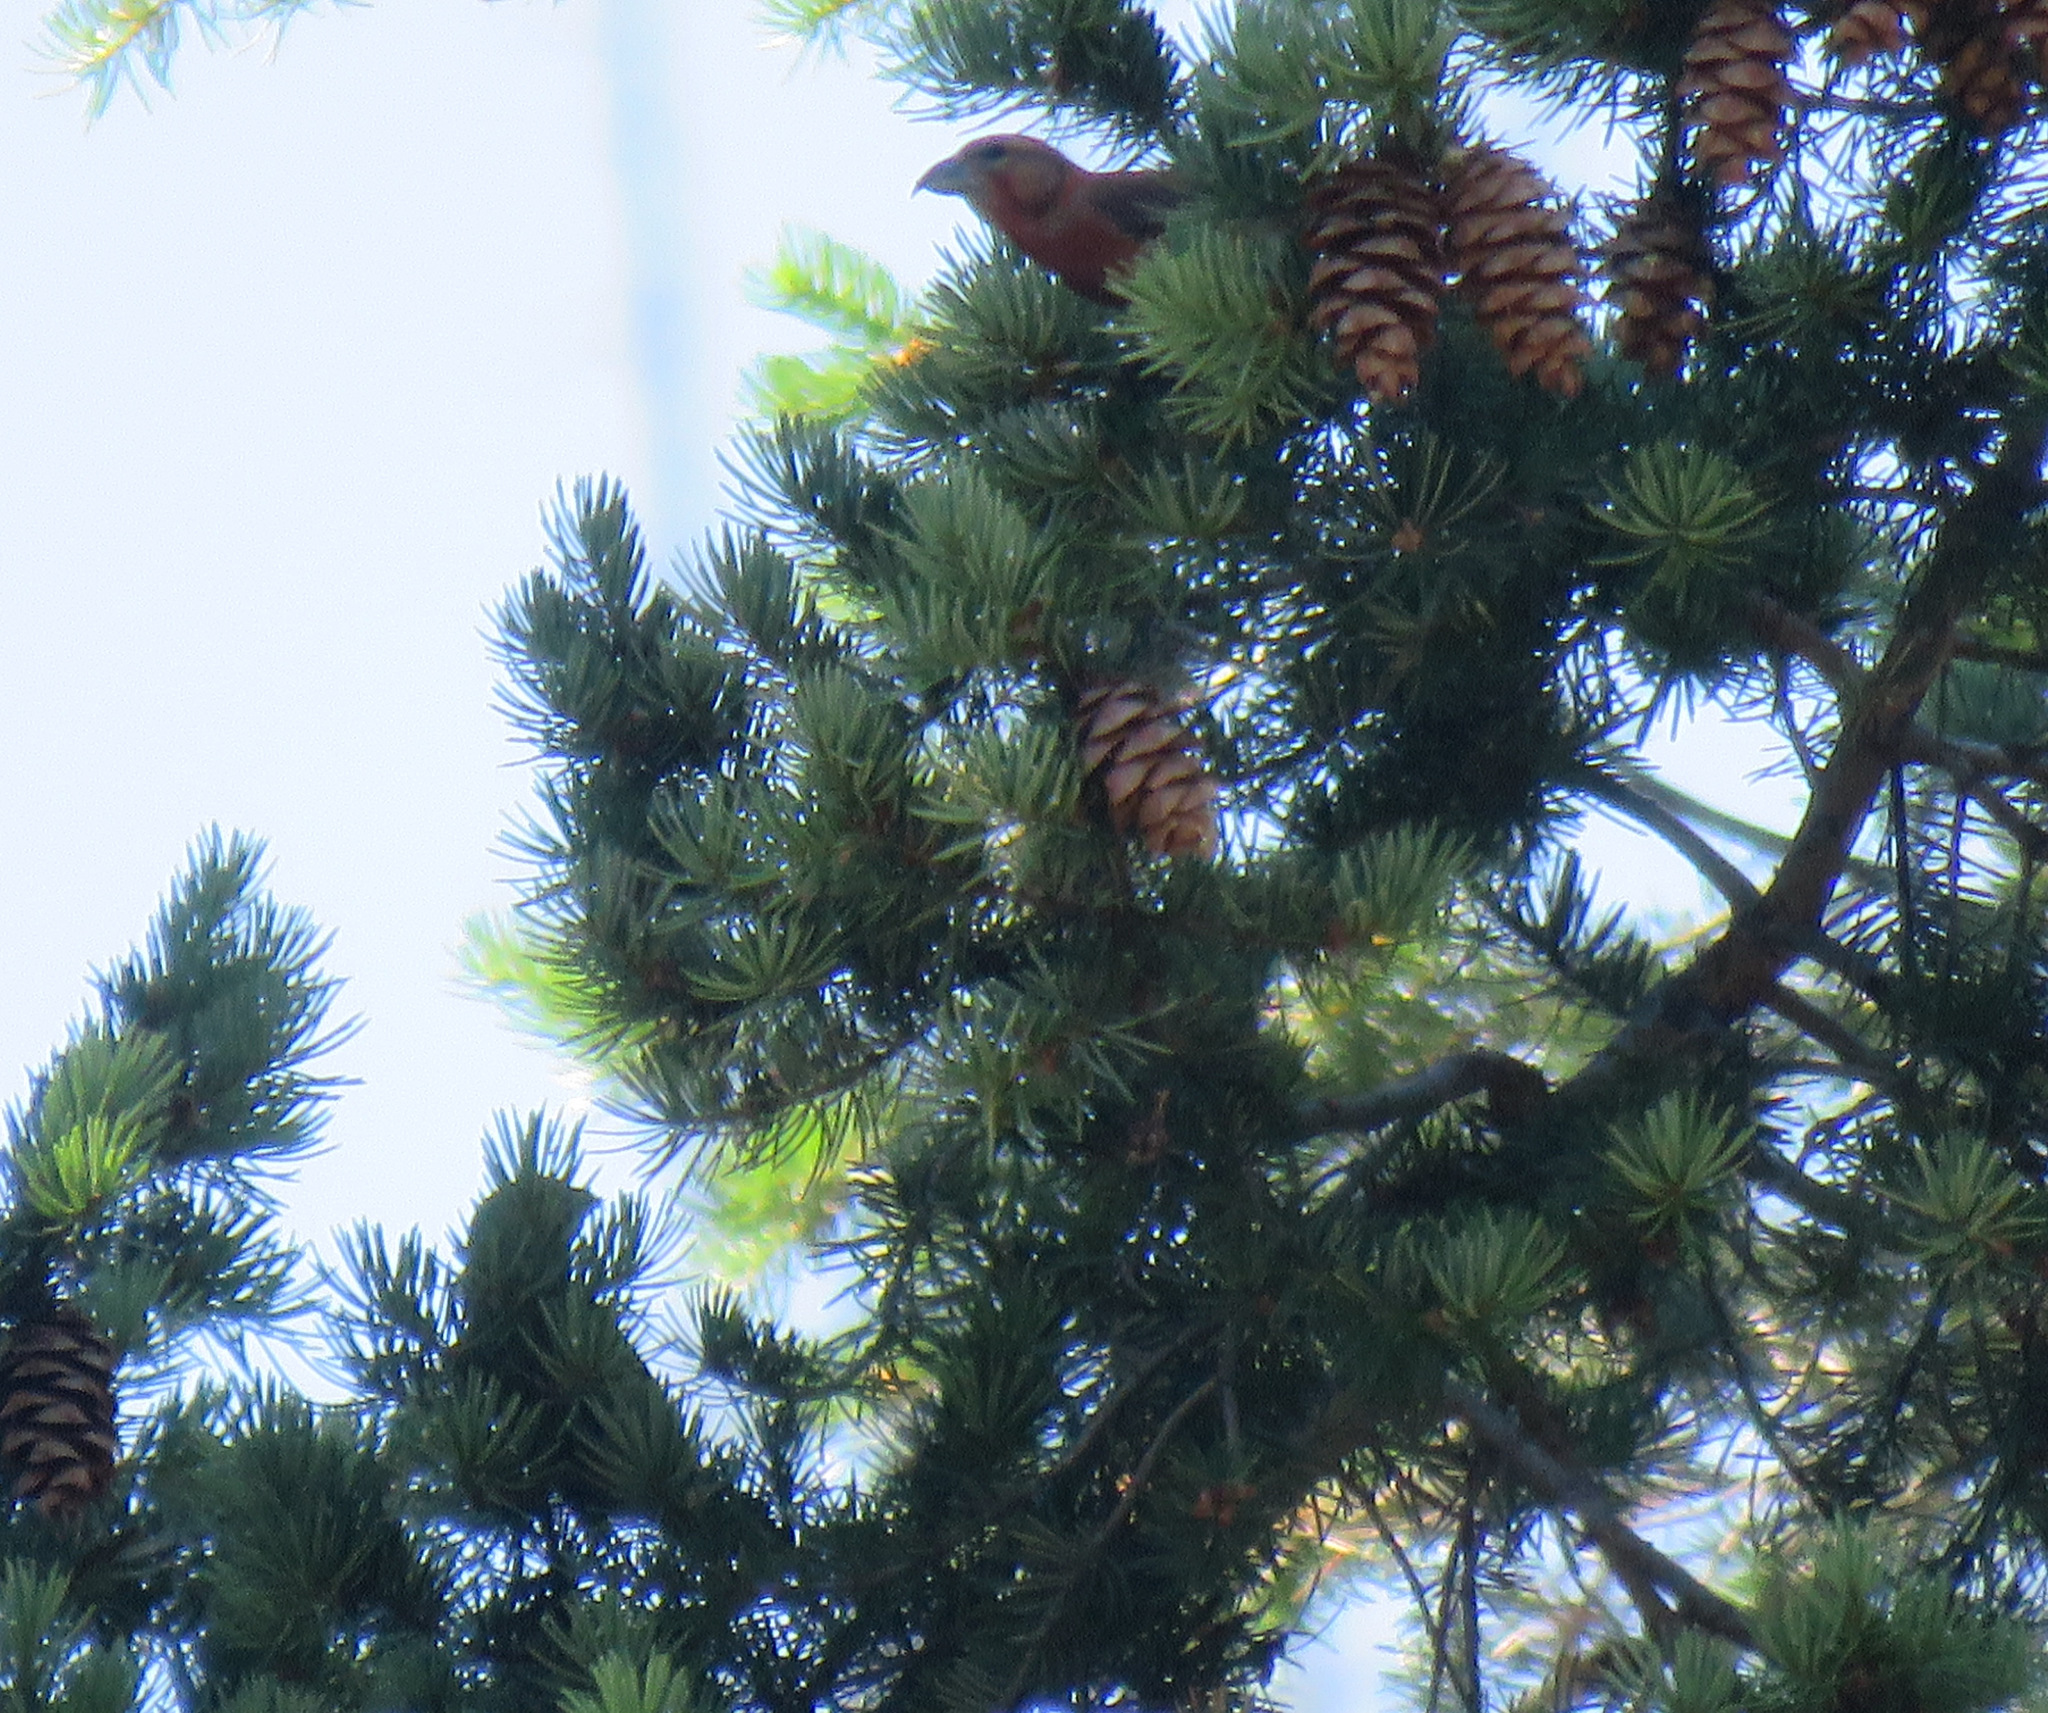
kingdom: Animalia
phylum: Chordata
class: Aves
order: Passeriformes
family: Fringillidae
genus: Loxia
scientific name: Loxia curvirostra
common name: Red crossbill
